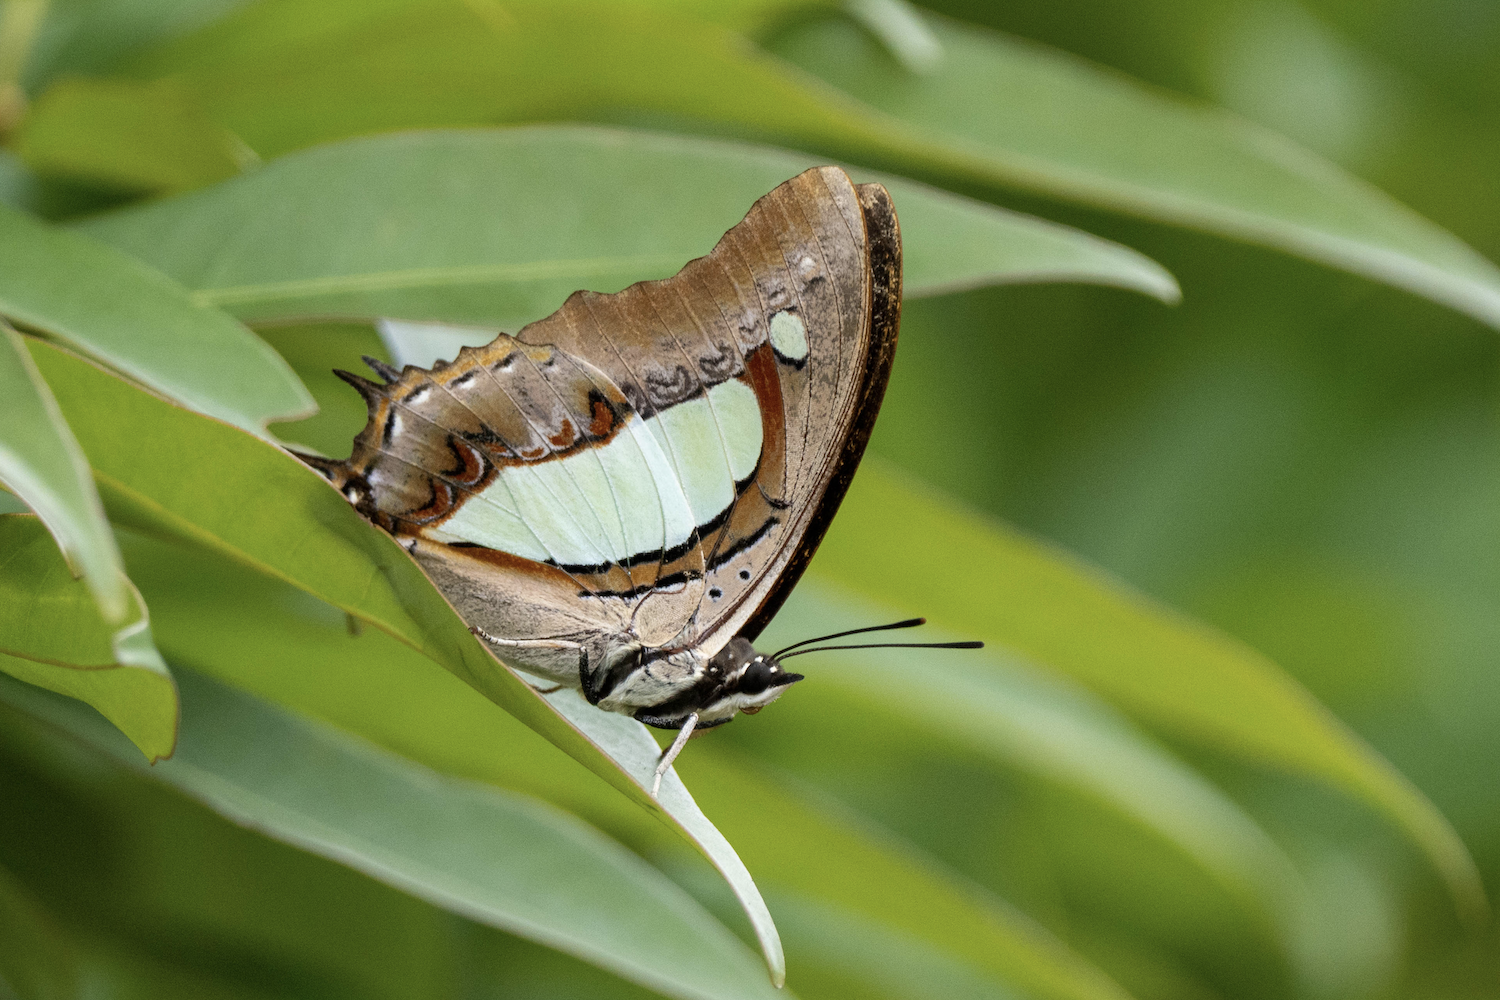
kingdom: Animalia
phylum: Arthropoda
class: Insecta
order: Lepidoptera
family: Nymphalidae
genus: Polyura
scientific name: Polyura athamas
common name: Common nawab
